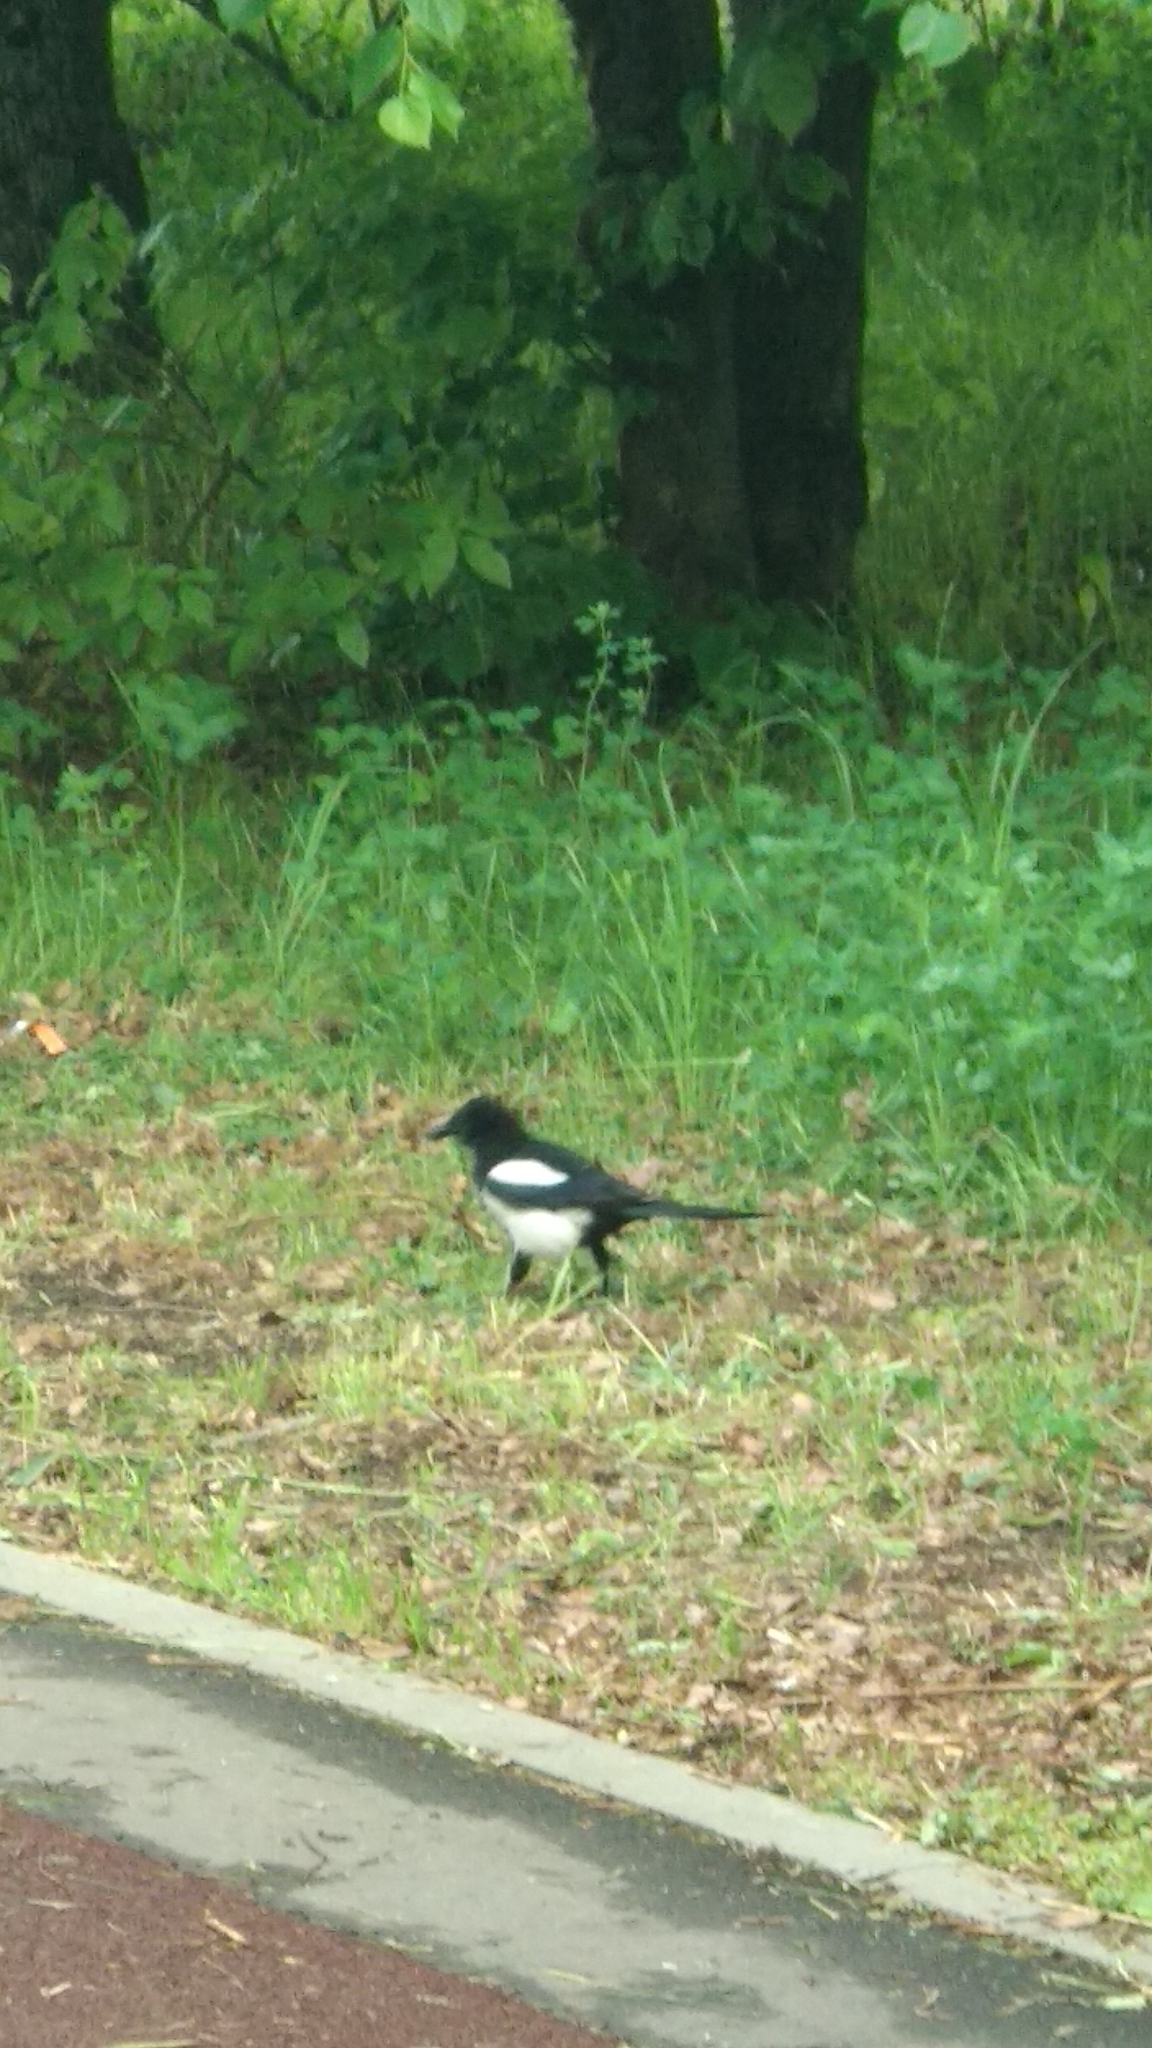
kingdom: Animalia
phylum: Chordata
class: Aves
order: Passeriformes
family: Corvidae
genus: Pica
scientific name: Pica pica
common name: Eurasian magpie
